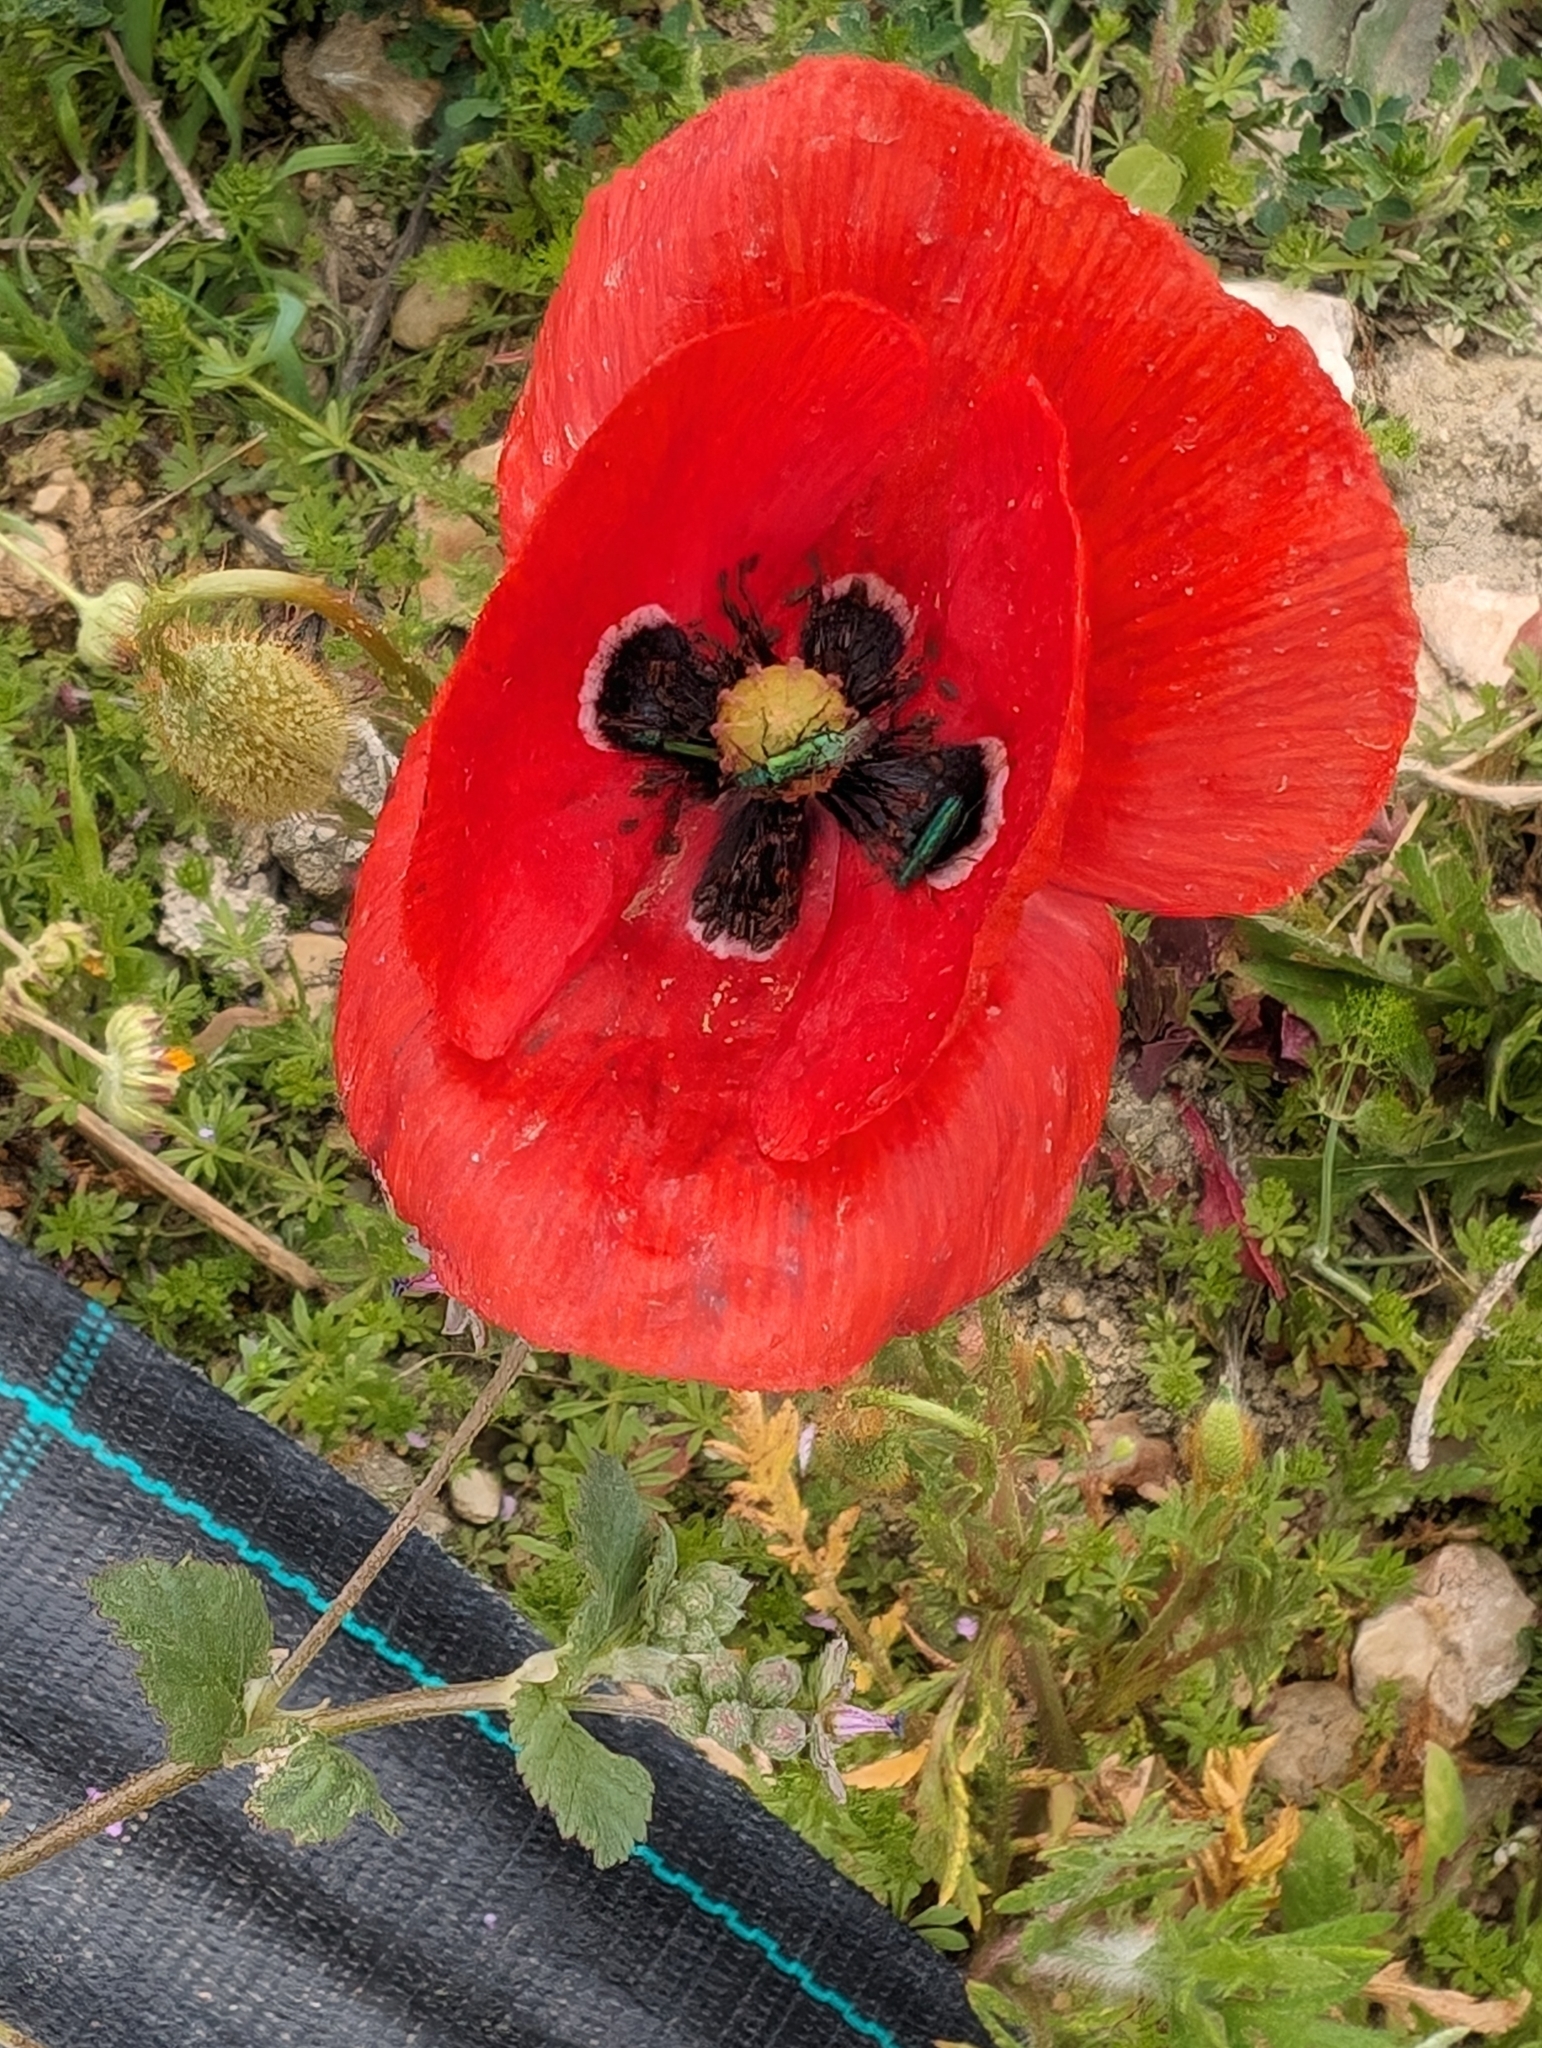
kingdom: Plantae
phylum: Tracheophyta
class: Magnoliopsida
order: Ranunculales
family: Papaveraceae
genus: Papaver
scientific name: Papaver rhoeas
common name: Corn poppy
